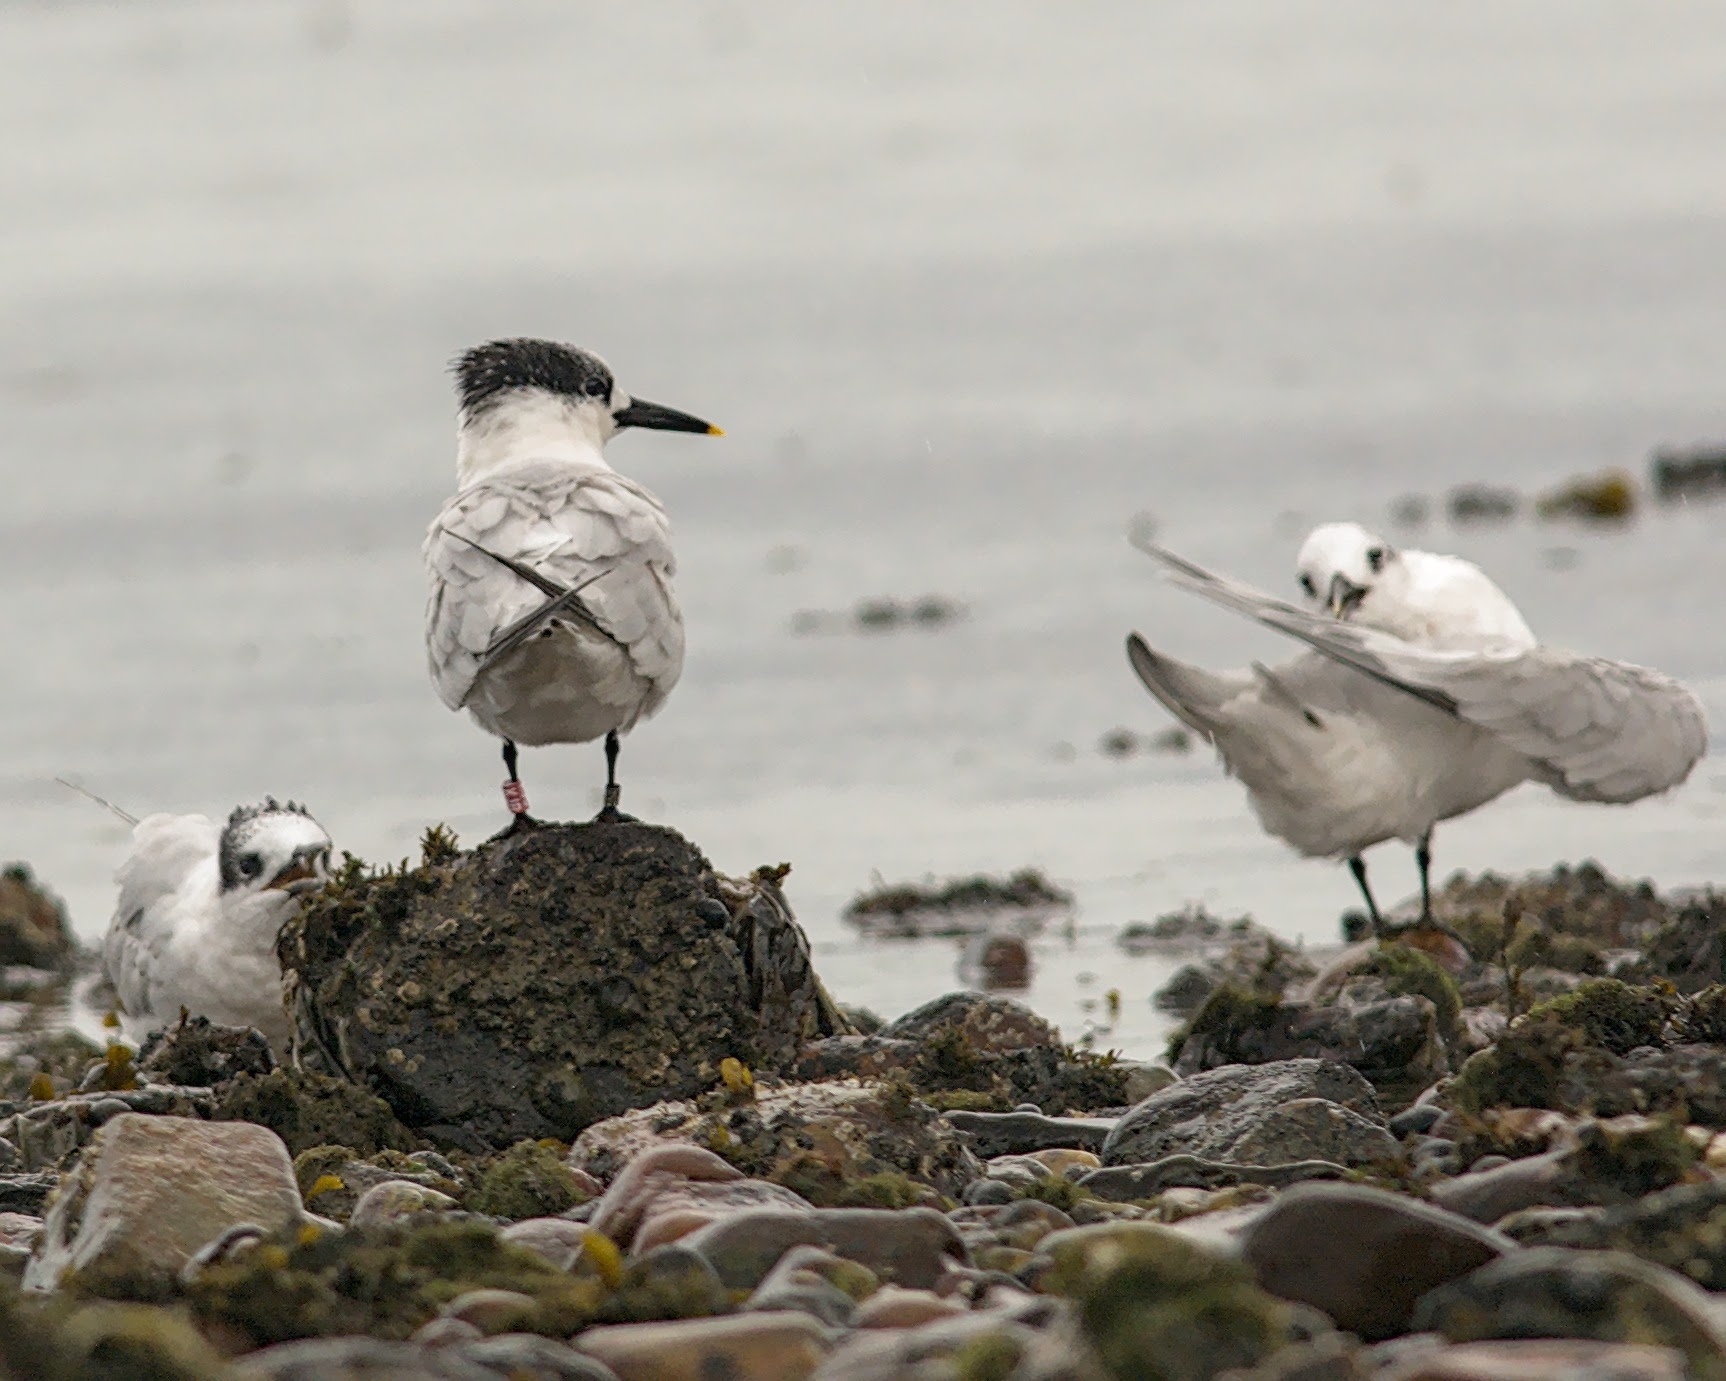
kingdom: Animalia
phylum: Chordata
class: Aves
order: Charadriiformes
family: Laridae
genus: Thalasseus
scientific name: Thalasseus sandvicensis
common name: Sandwich tern
